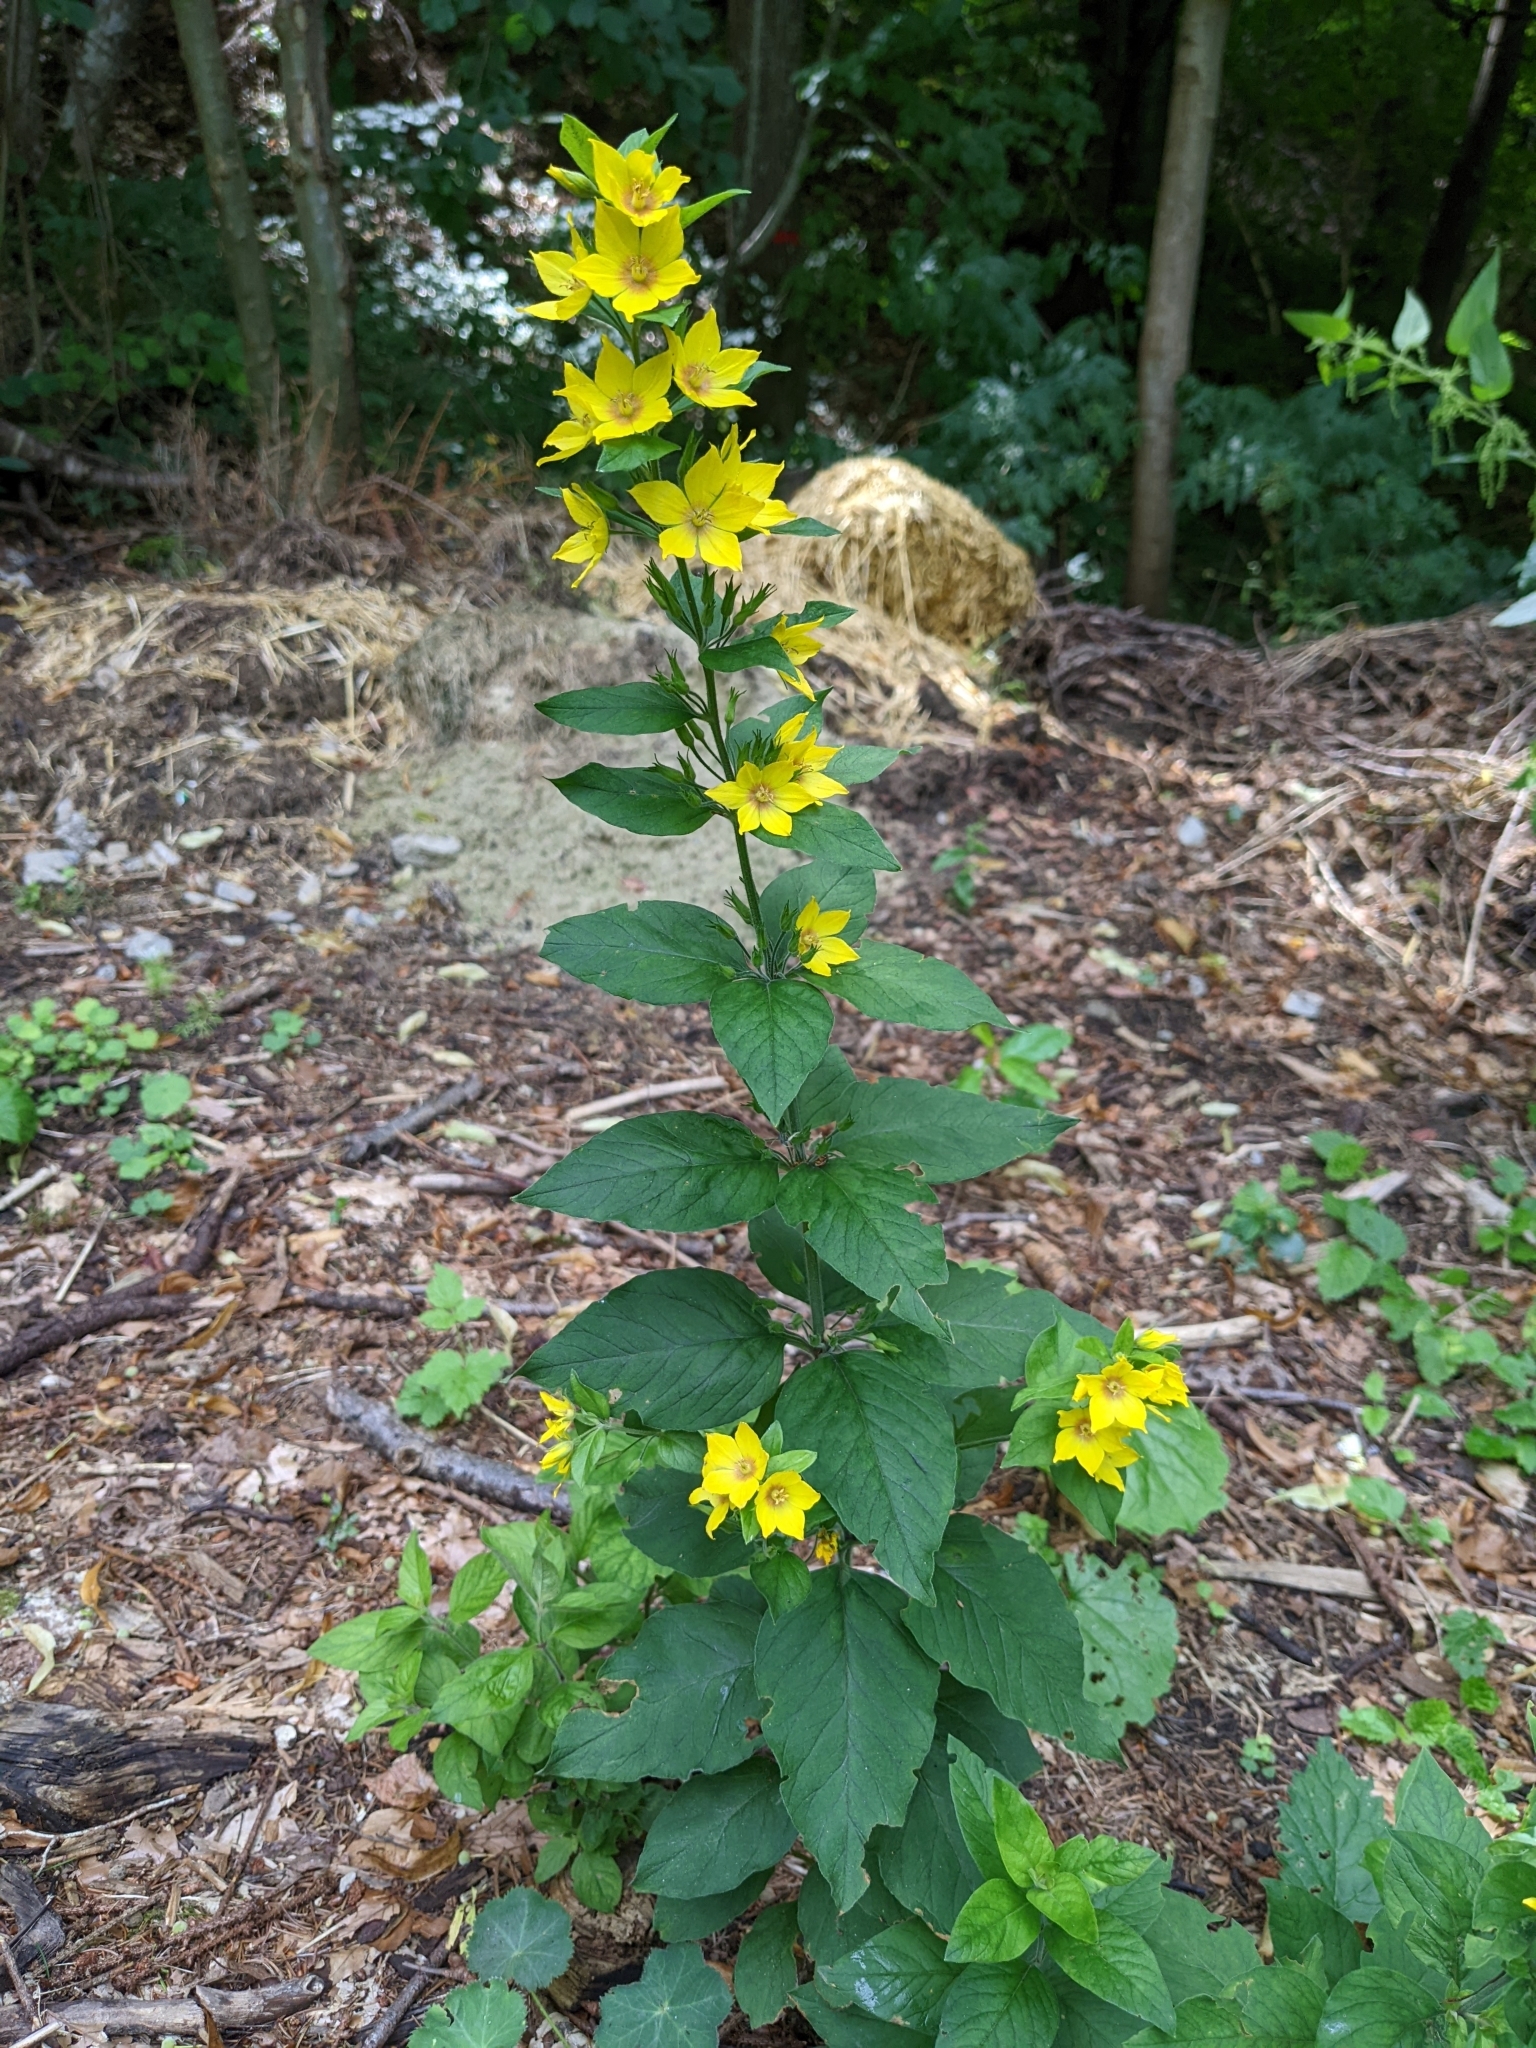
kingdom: Plantae
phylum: Tracheophyta
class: Magnoliopsida
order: Ericales
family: Primulaceae
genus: Lysimachia
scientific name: Lysimachia punctata
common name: Dotted loosestrife
